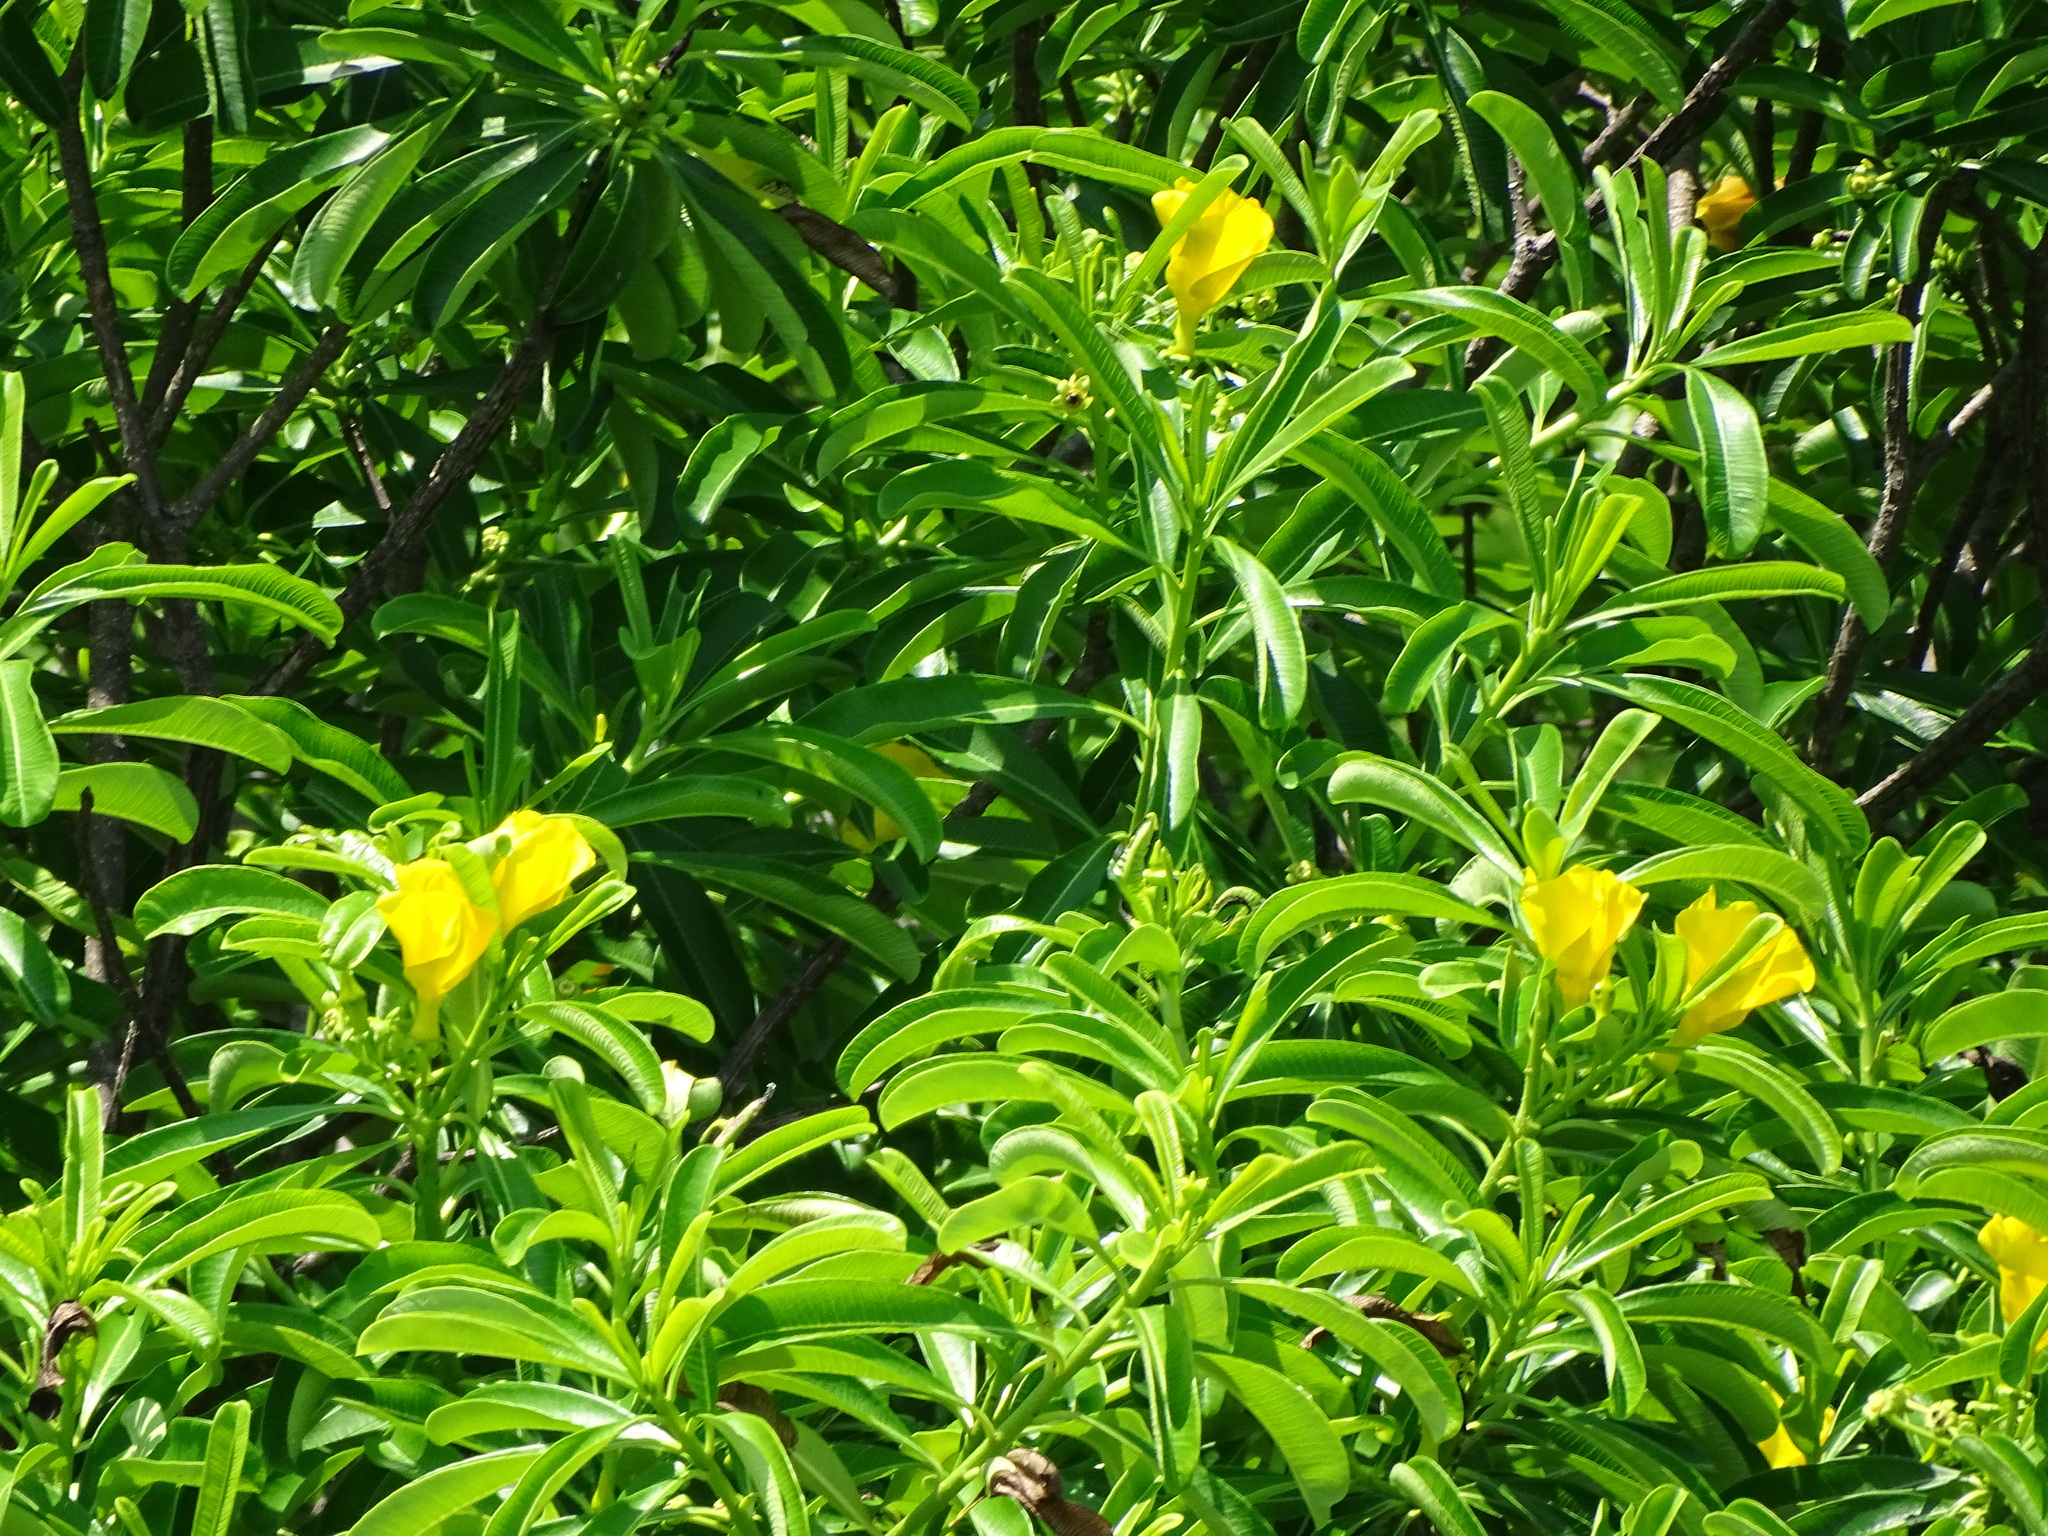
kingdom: Plantae
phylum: Tracheophyta
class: Magnoliopsida
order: Gentianales
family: Apocynaceae
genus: Cascabela
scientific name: Cascabela ovata
